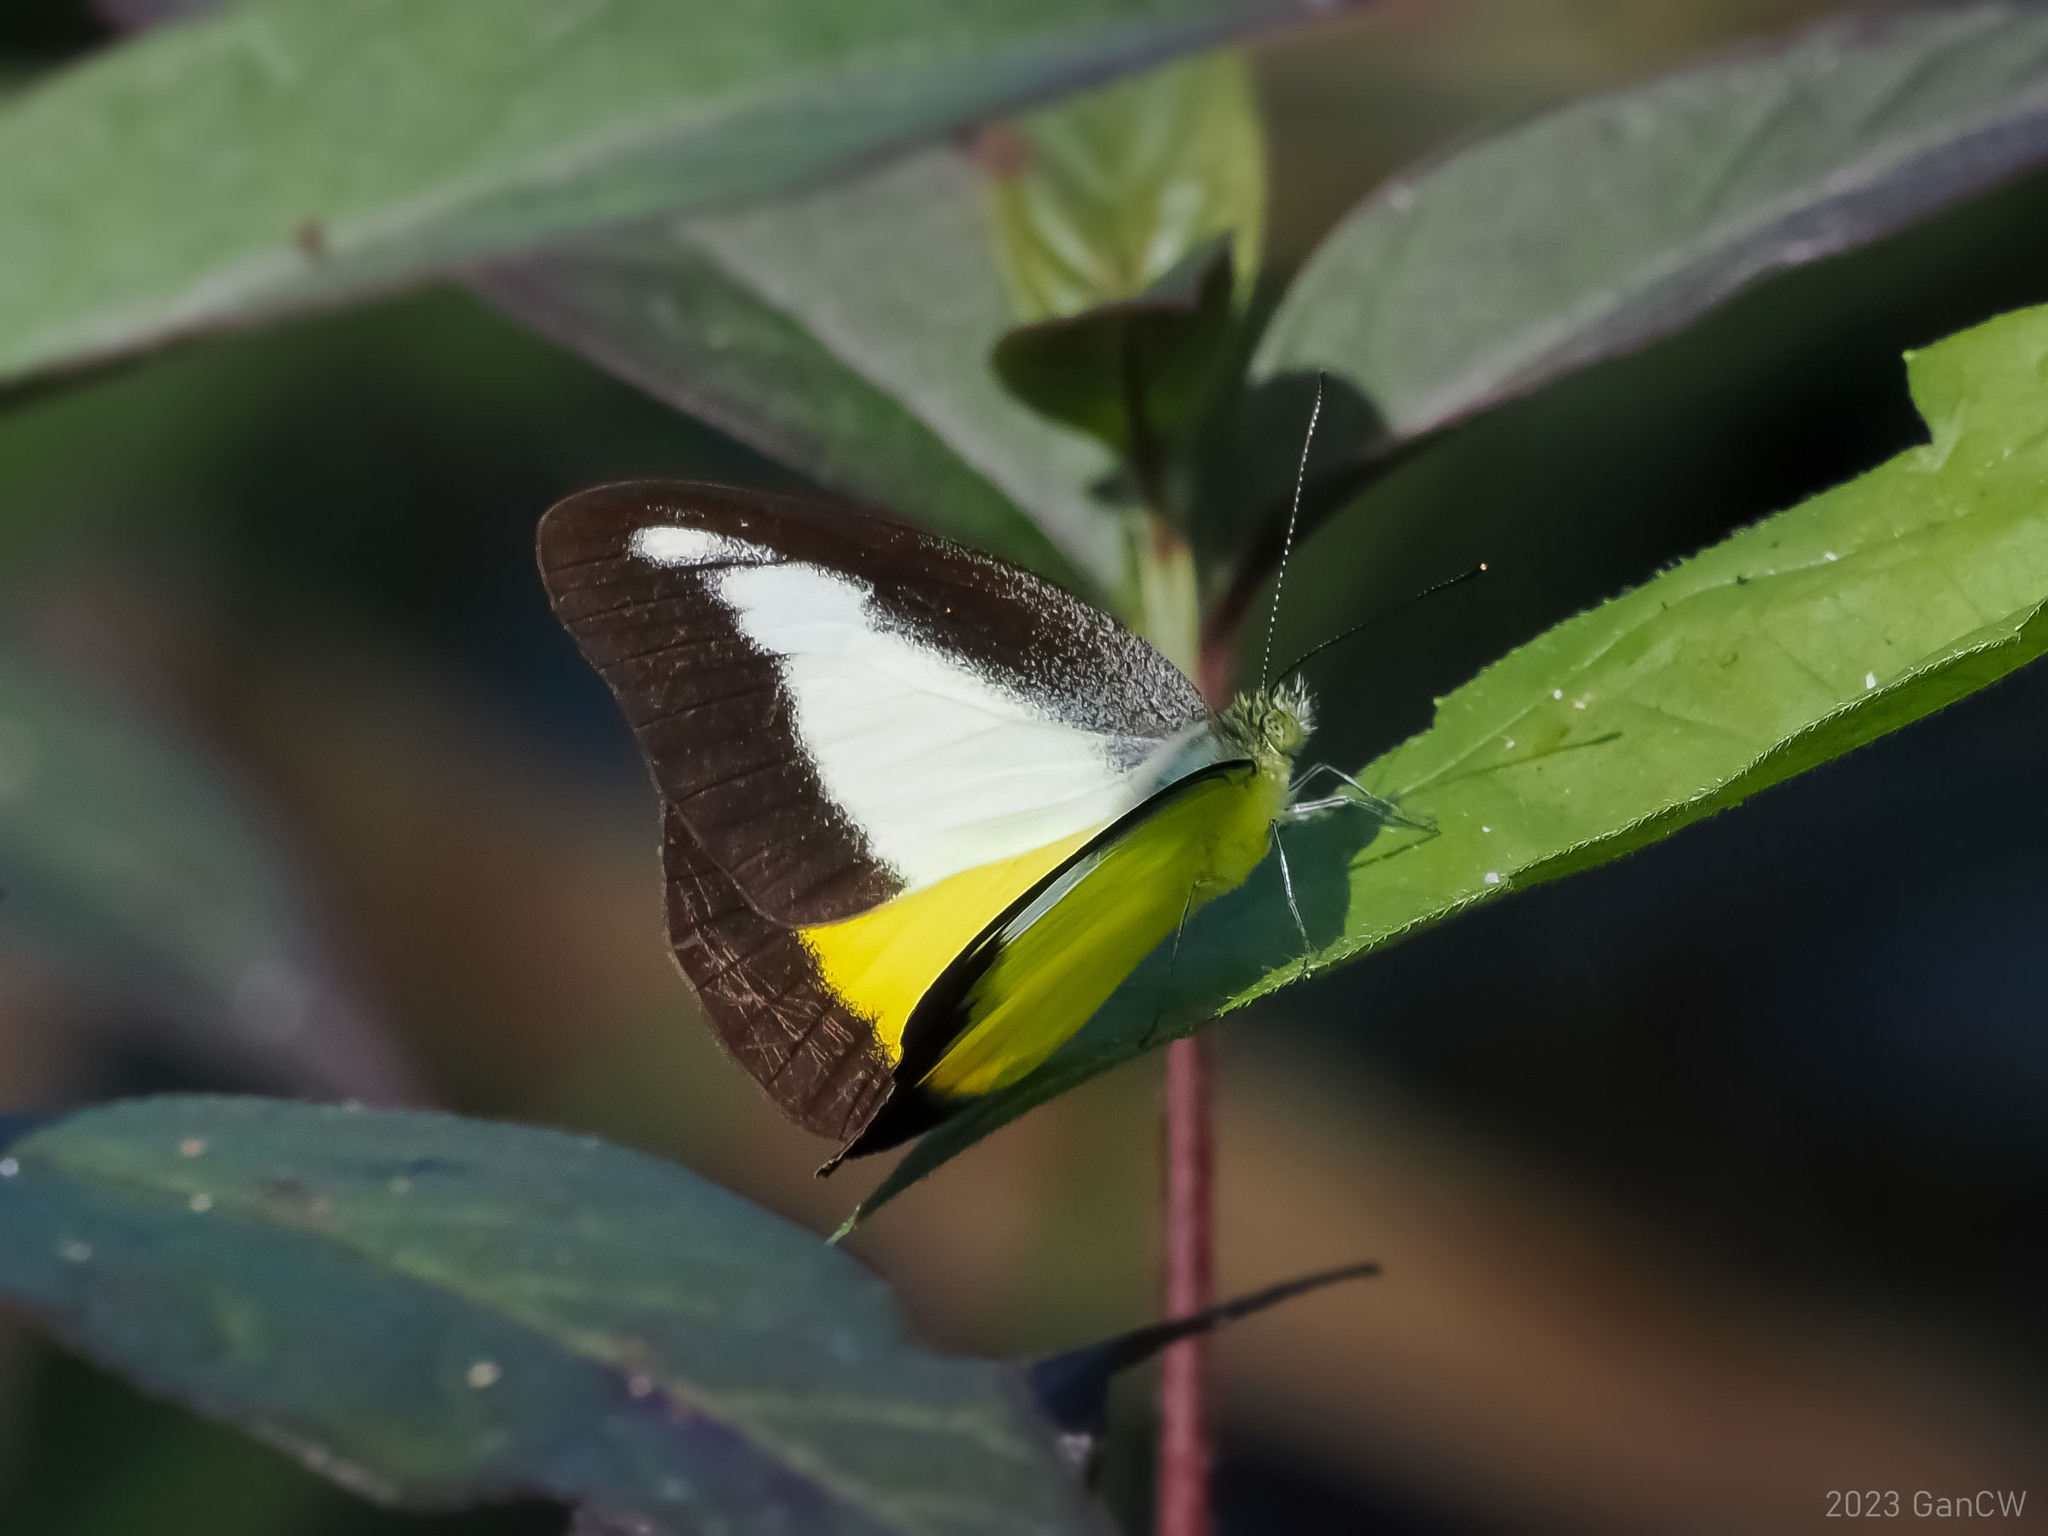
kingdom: Animalia
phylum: Arthropoda
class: Insecta
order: Lepidoptera
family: Pieridae
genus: Appias
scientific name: Appias nephele
